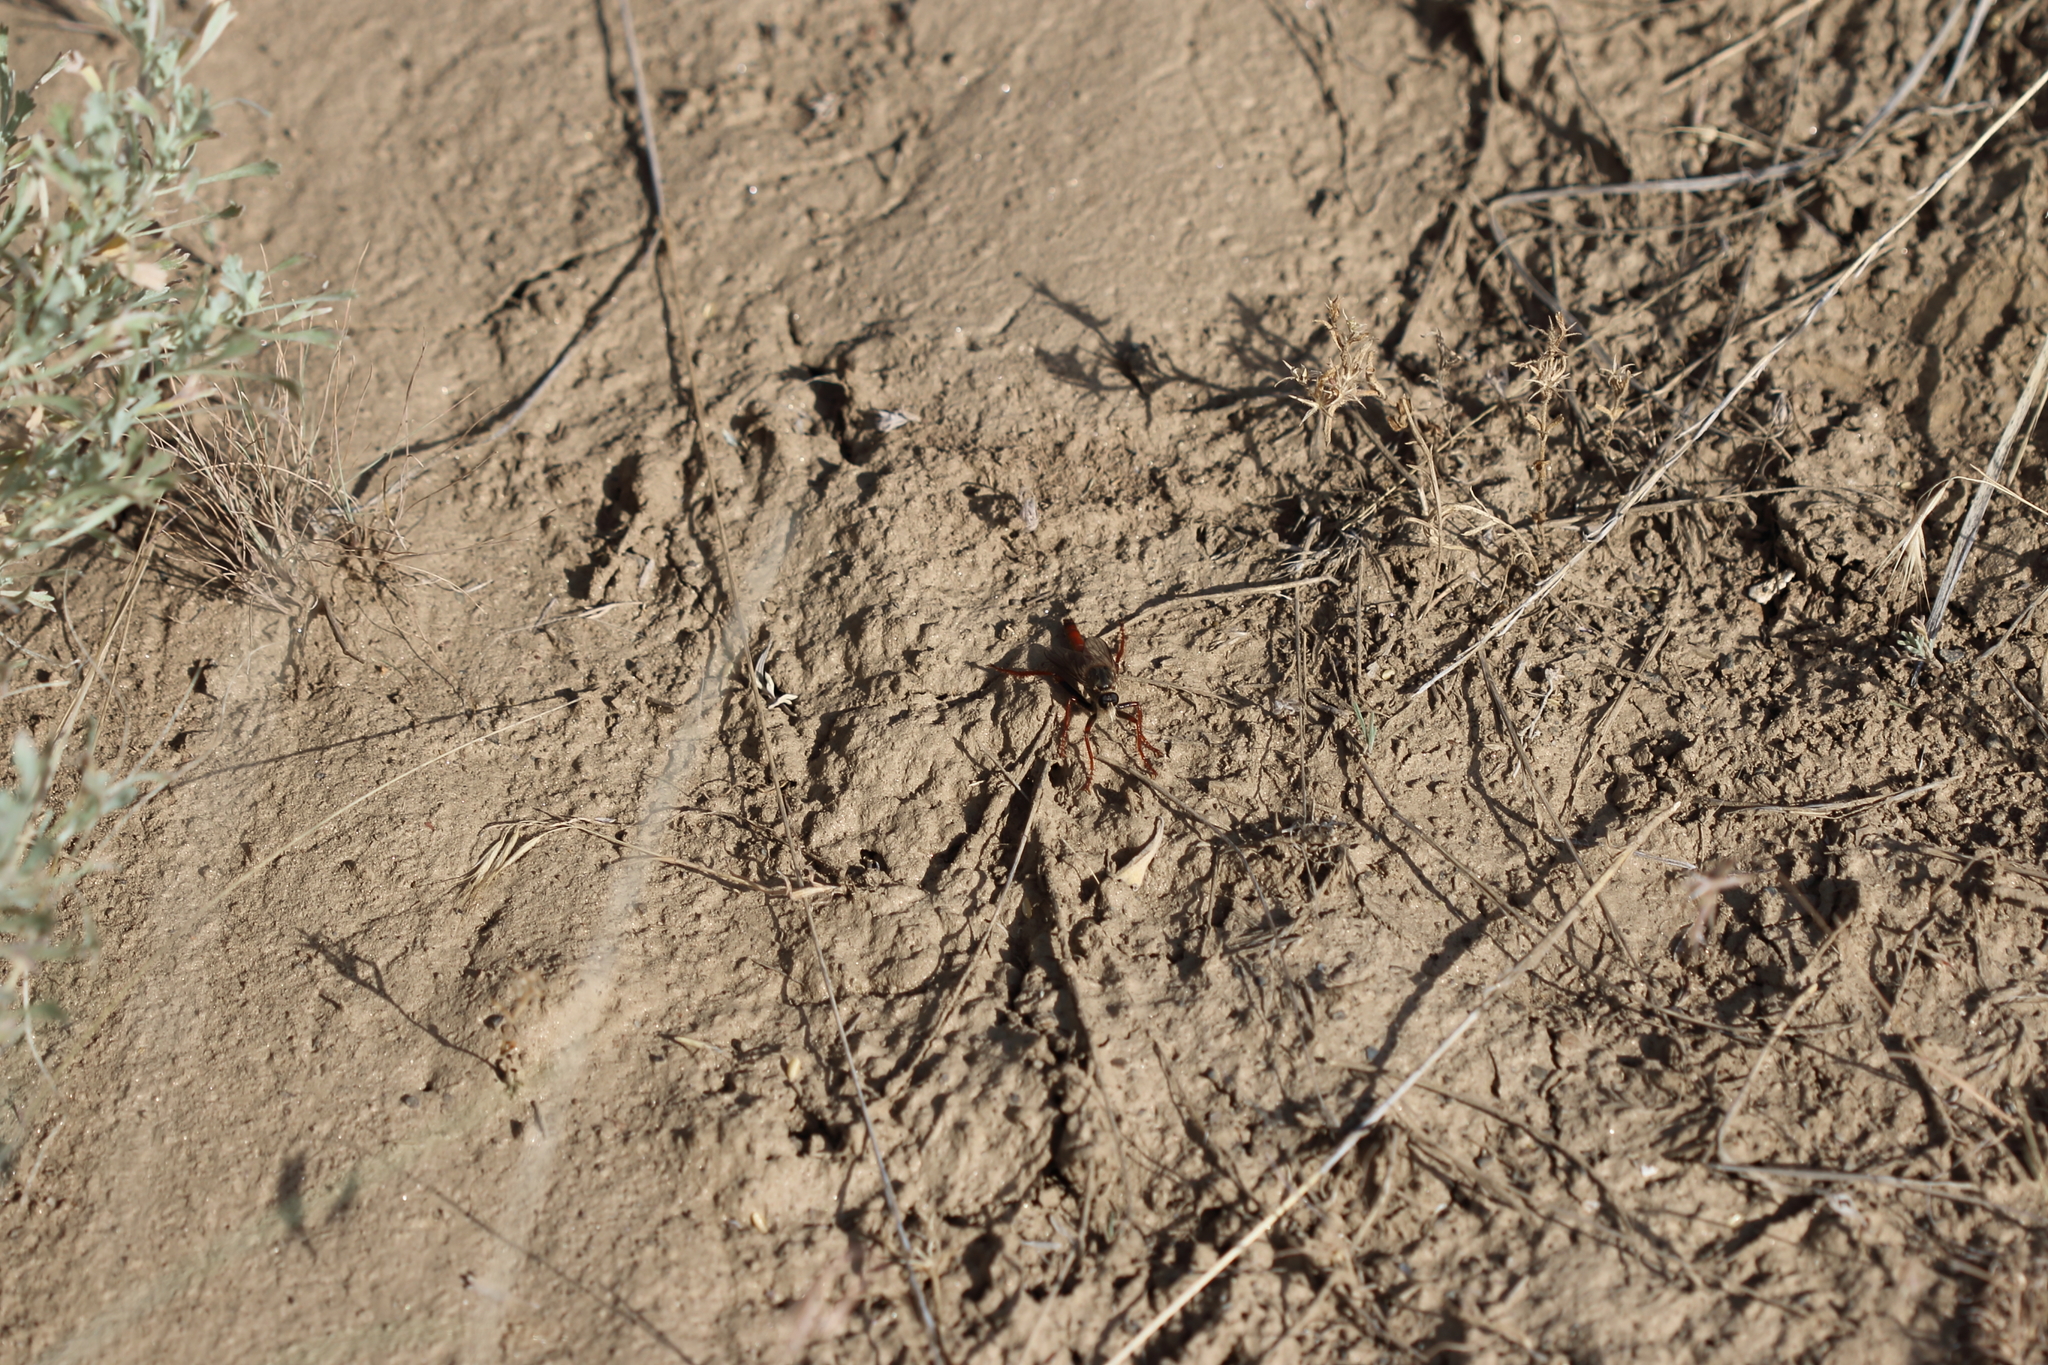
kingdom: Animalia
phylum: Arthropoda
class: Insecta
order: Diptera
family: Asilidae
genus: Stenopogon
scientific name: Stenopogon inquinatus
